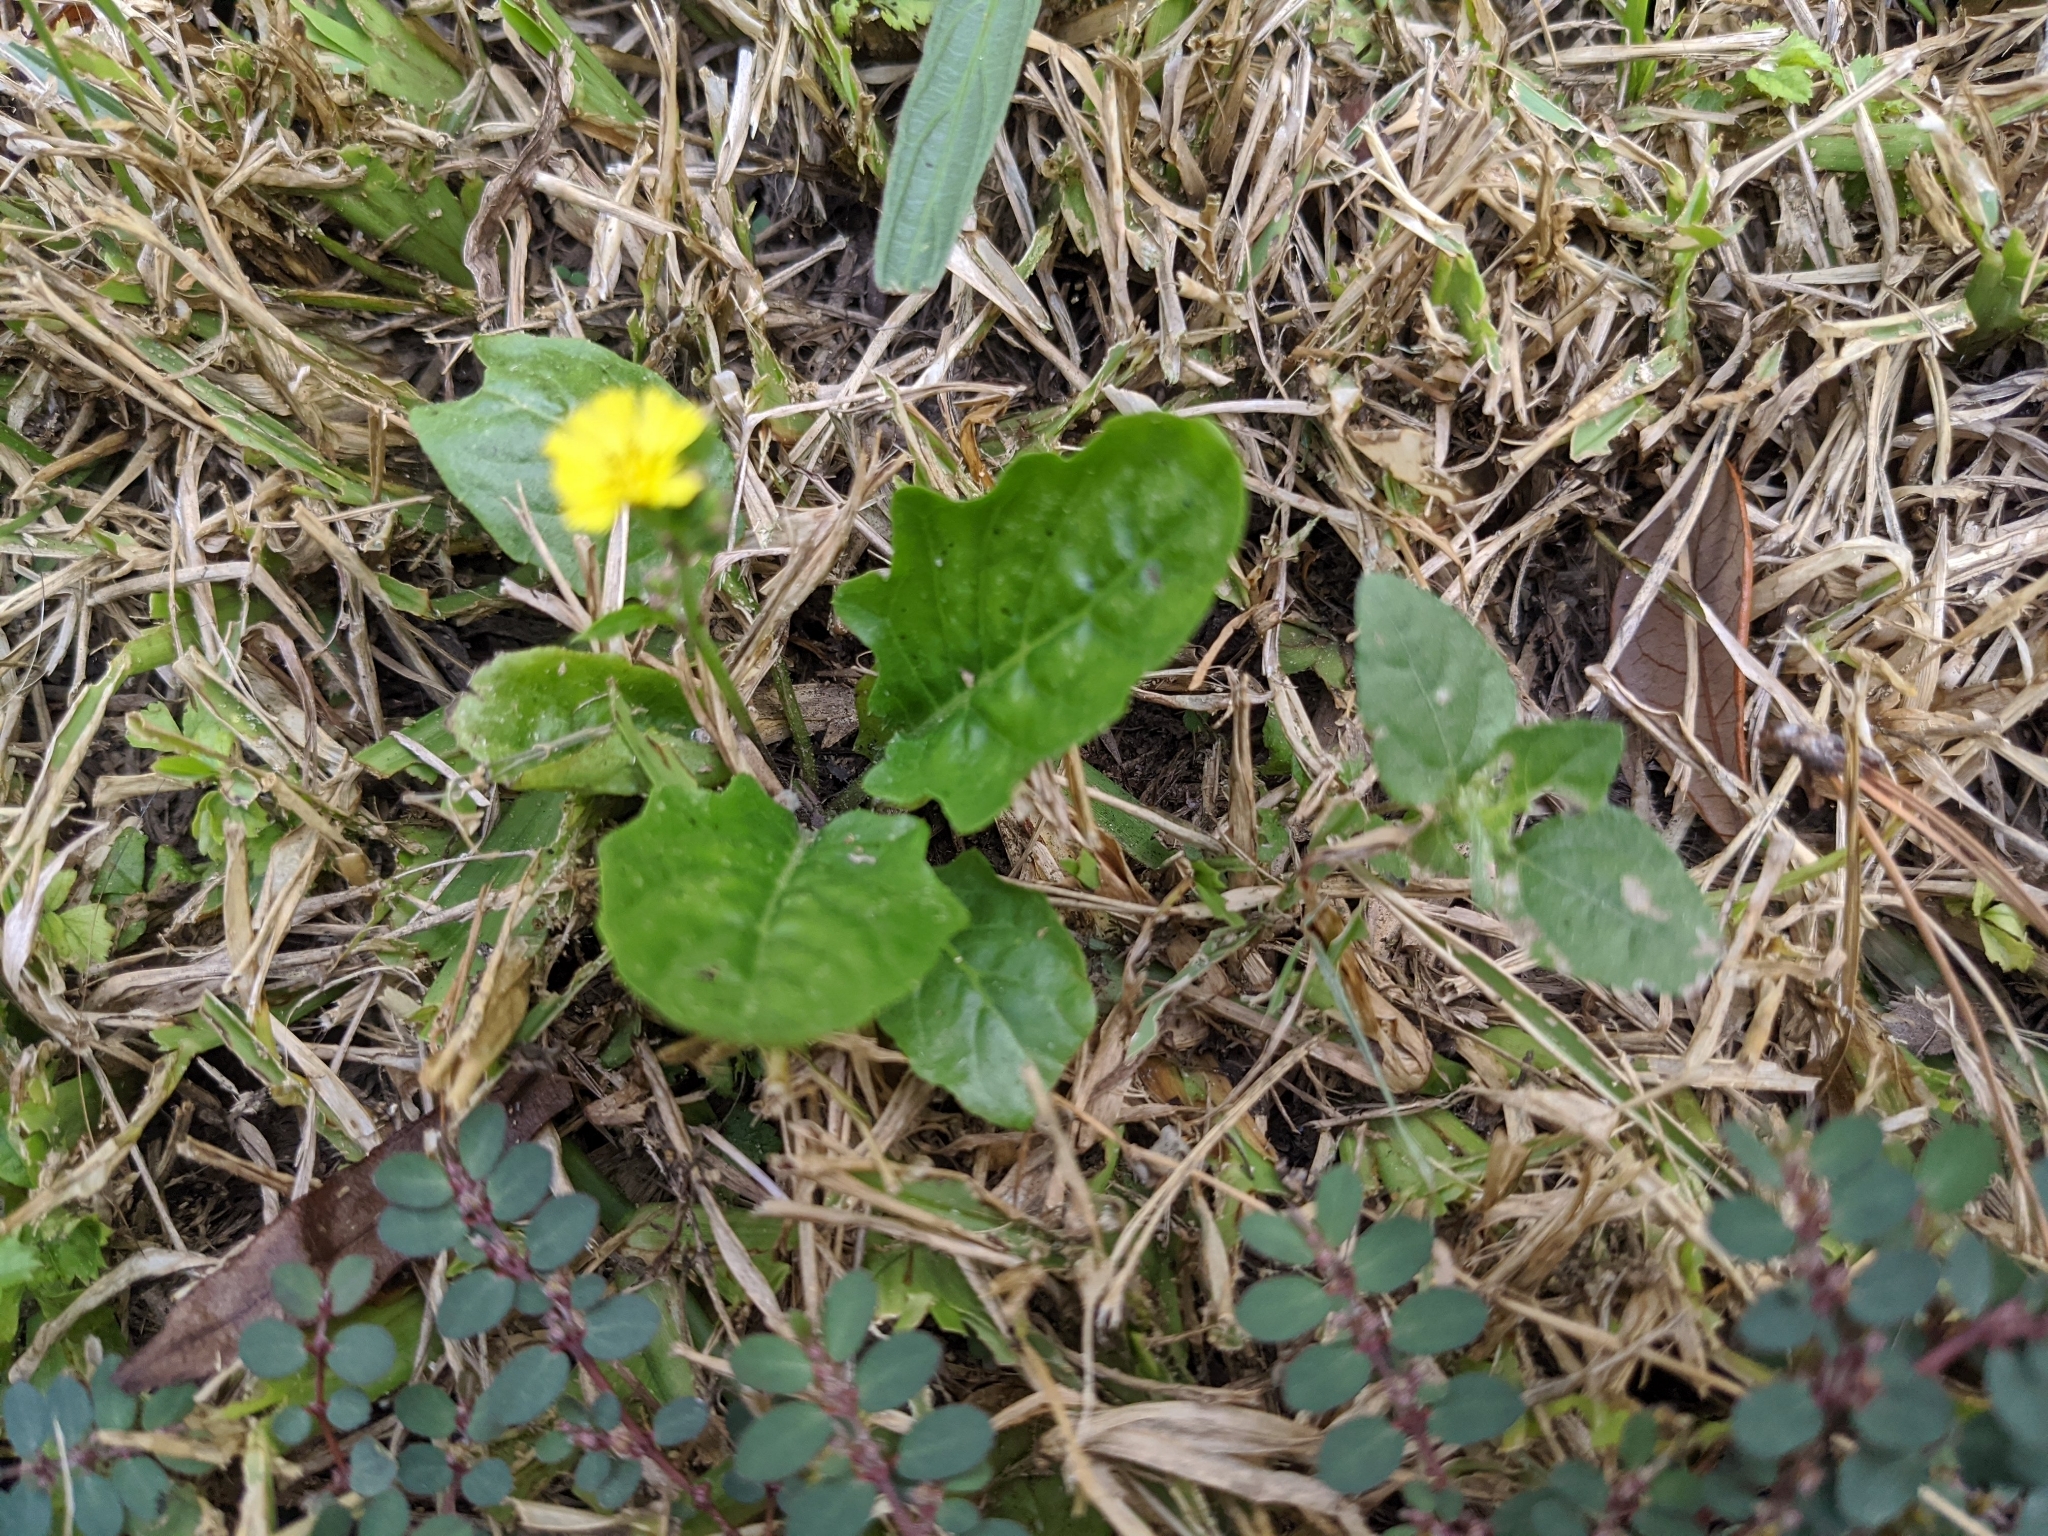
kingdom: Plantae
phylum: Tracheophyta
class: Magnoliopsida
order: Asterales
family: Asteraceae
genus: Youngia
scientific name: Youngia japonica
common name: Oriental false hawksbeard
